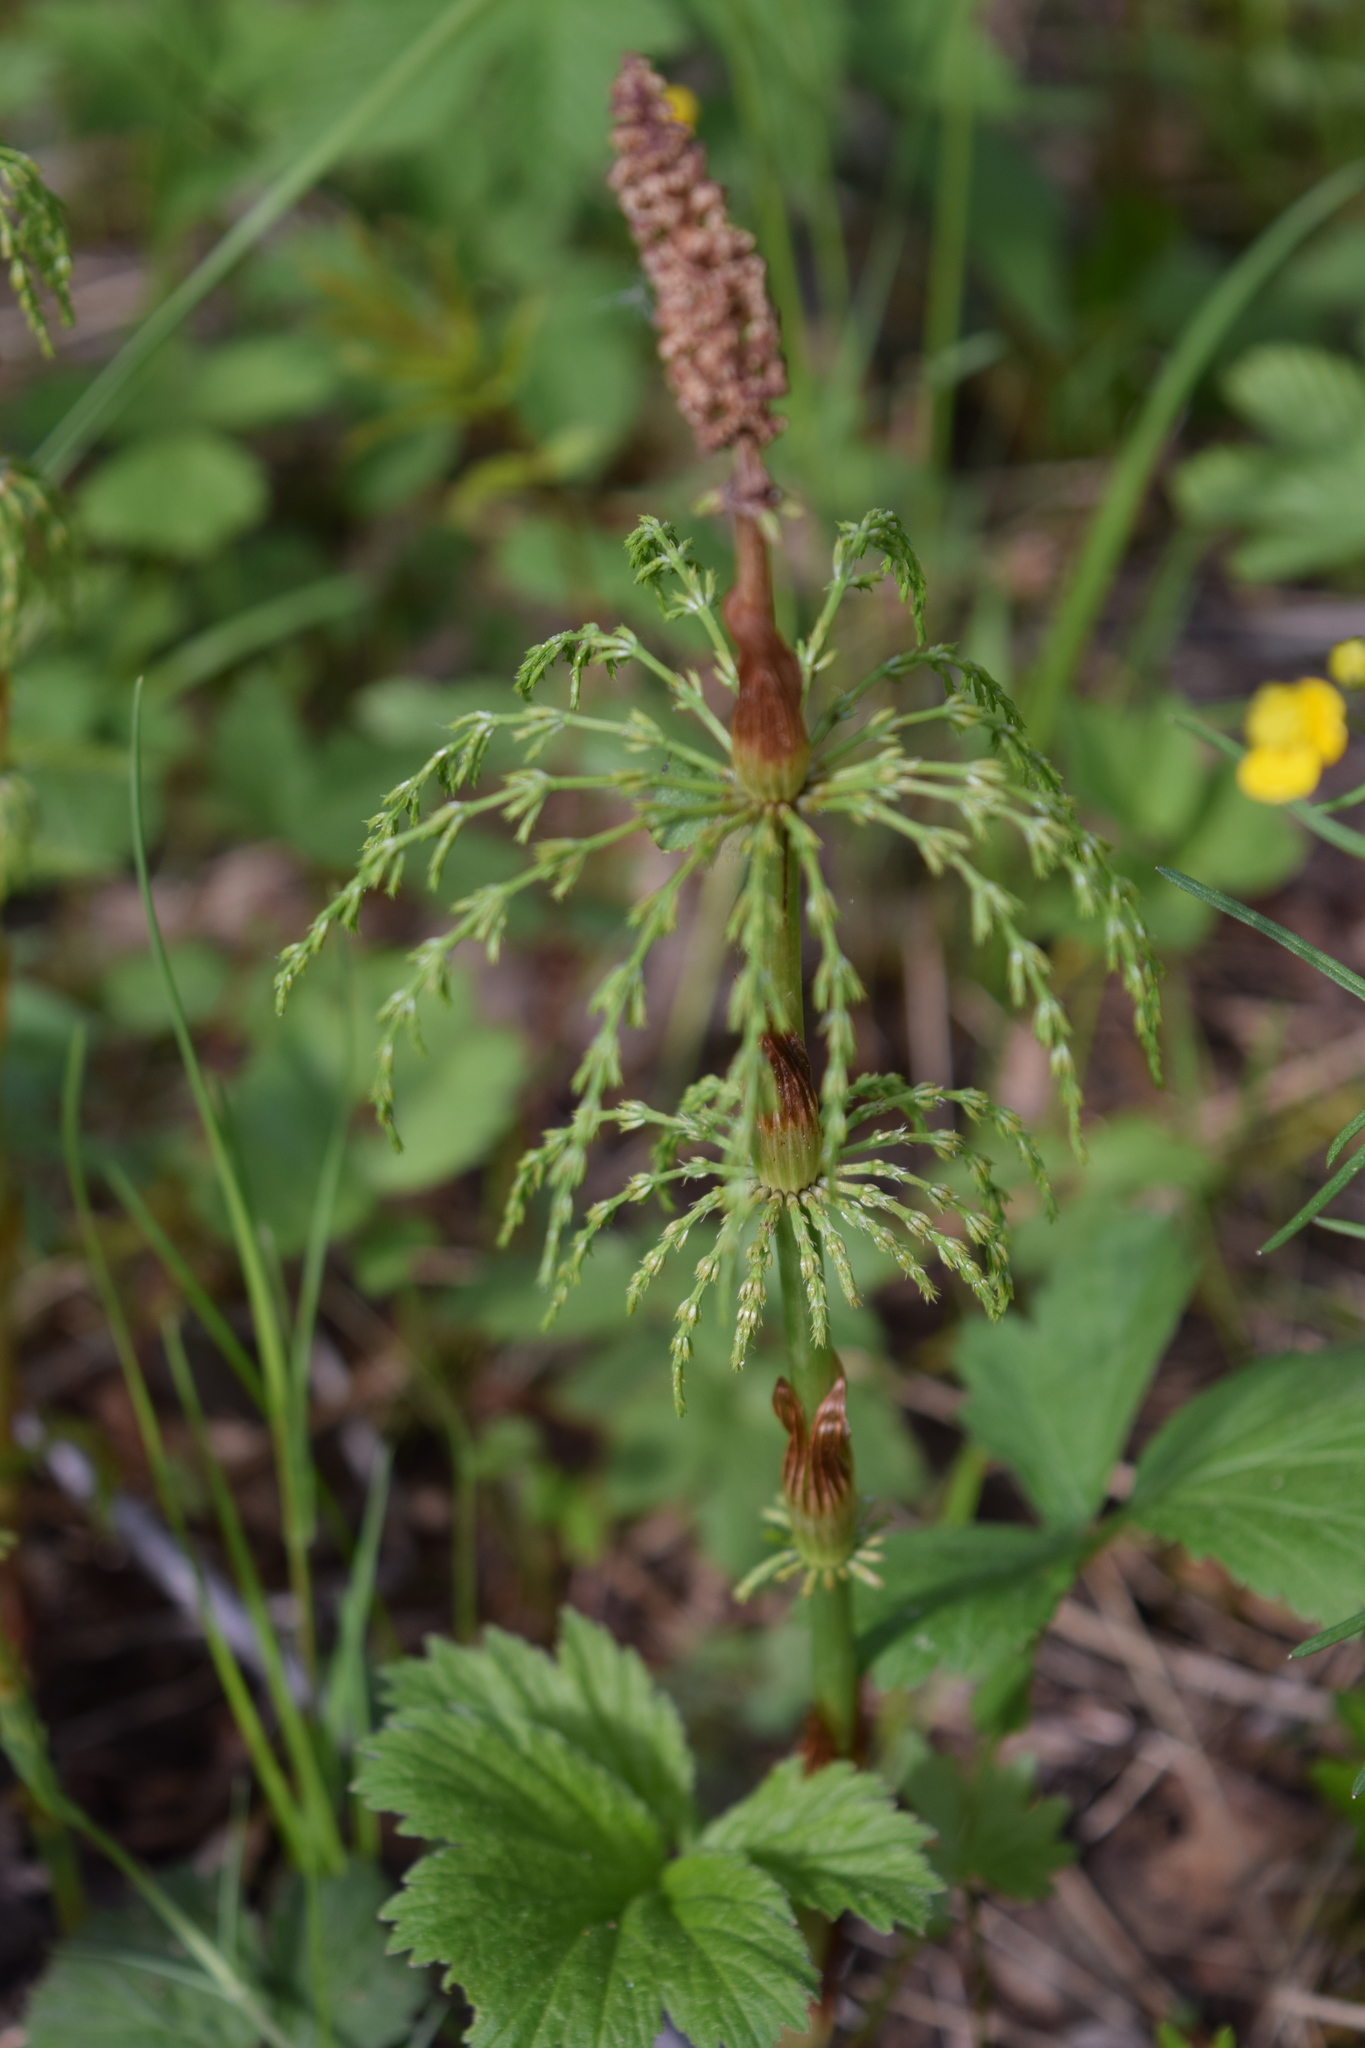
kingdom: Plantae
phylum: Tracheophyta
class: Polypodiopsida
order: Equisetales
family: Equisetaceae
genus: Equisetum
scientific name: Equisetum sylvaticum
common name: Wood horsetail
